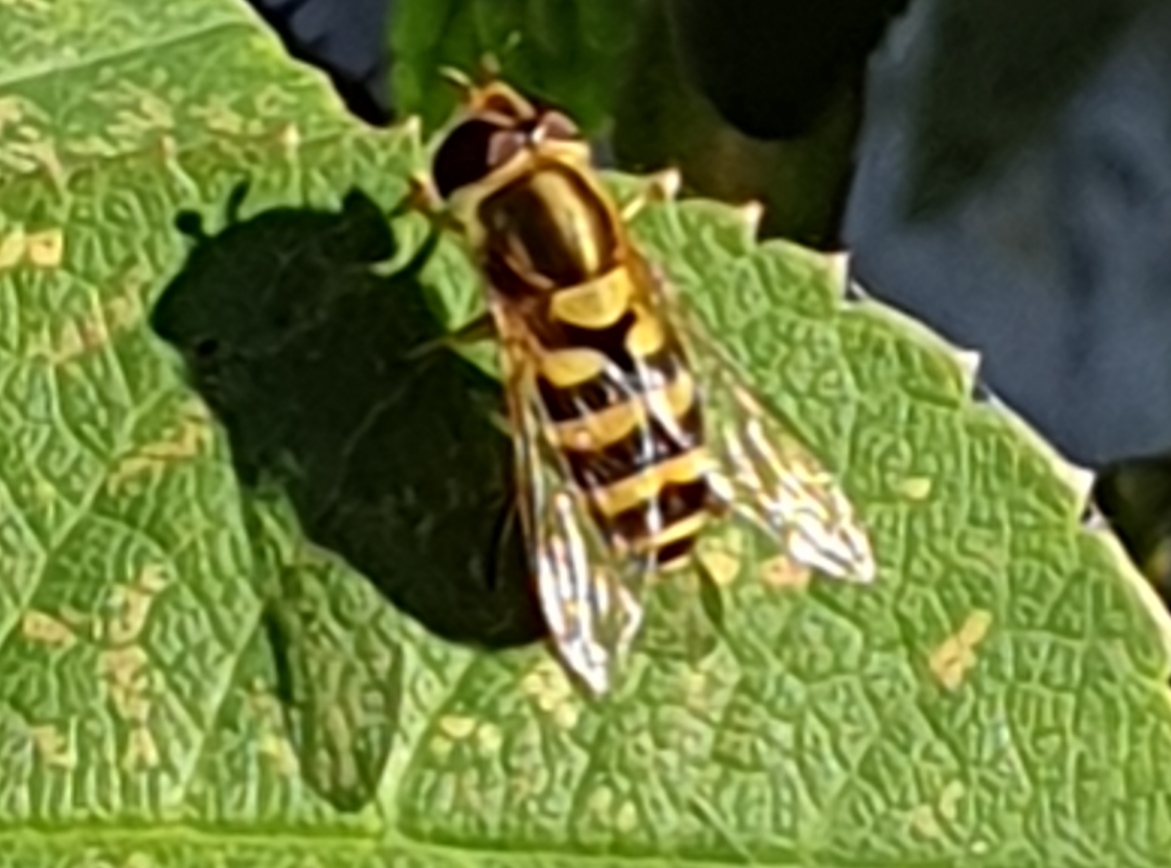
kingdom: Animalia
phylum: Arthropoda
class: Insecta
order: Diptera
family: Syrphidae
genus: Syrphus
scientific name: Syrphus
